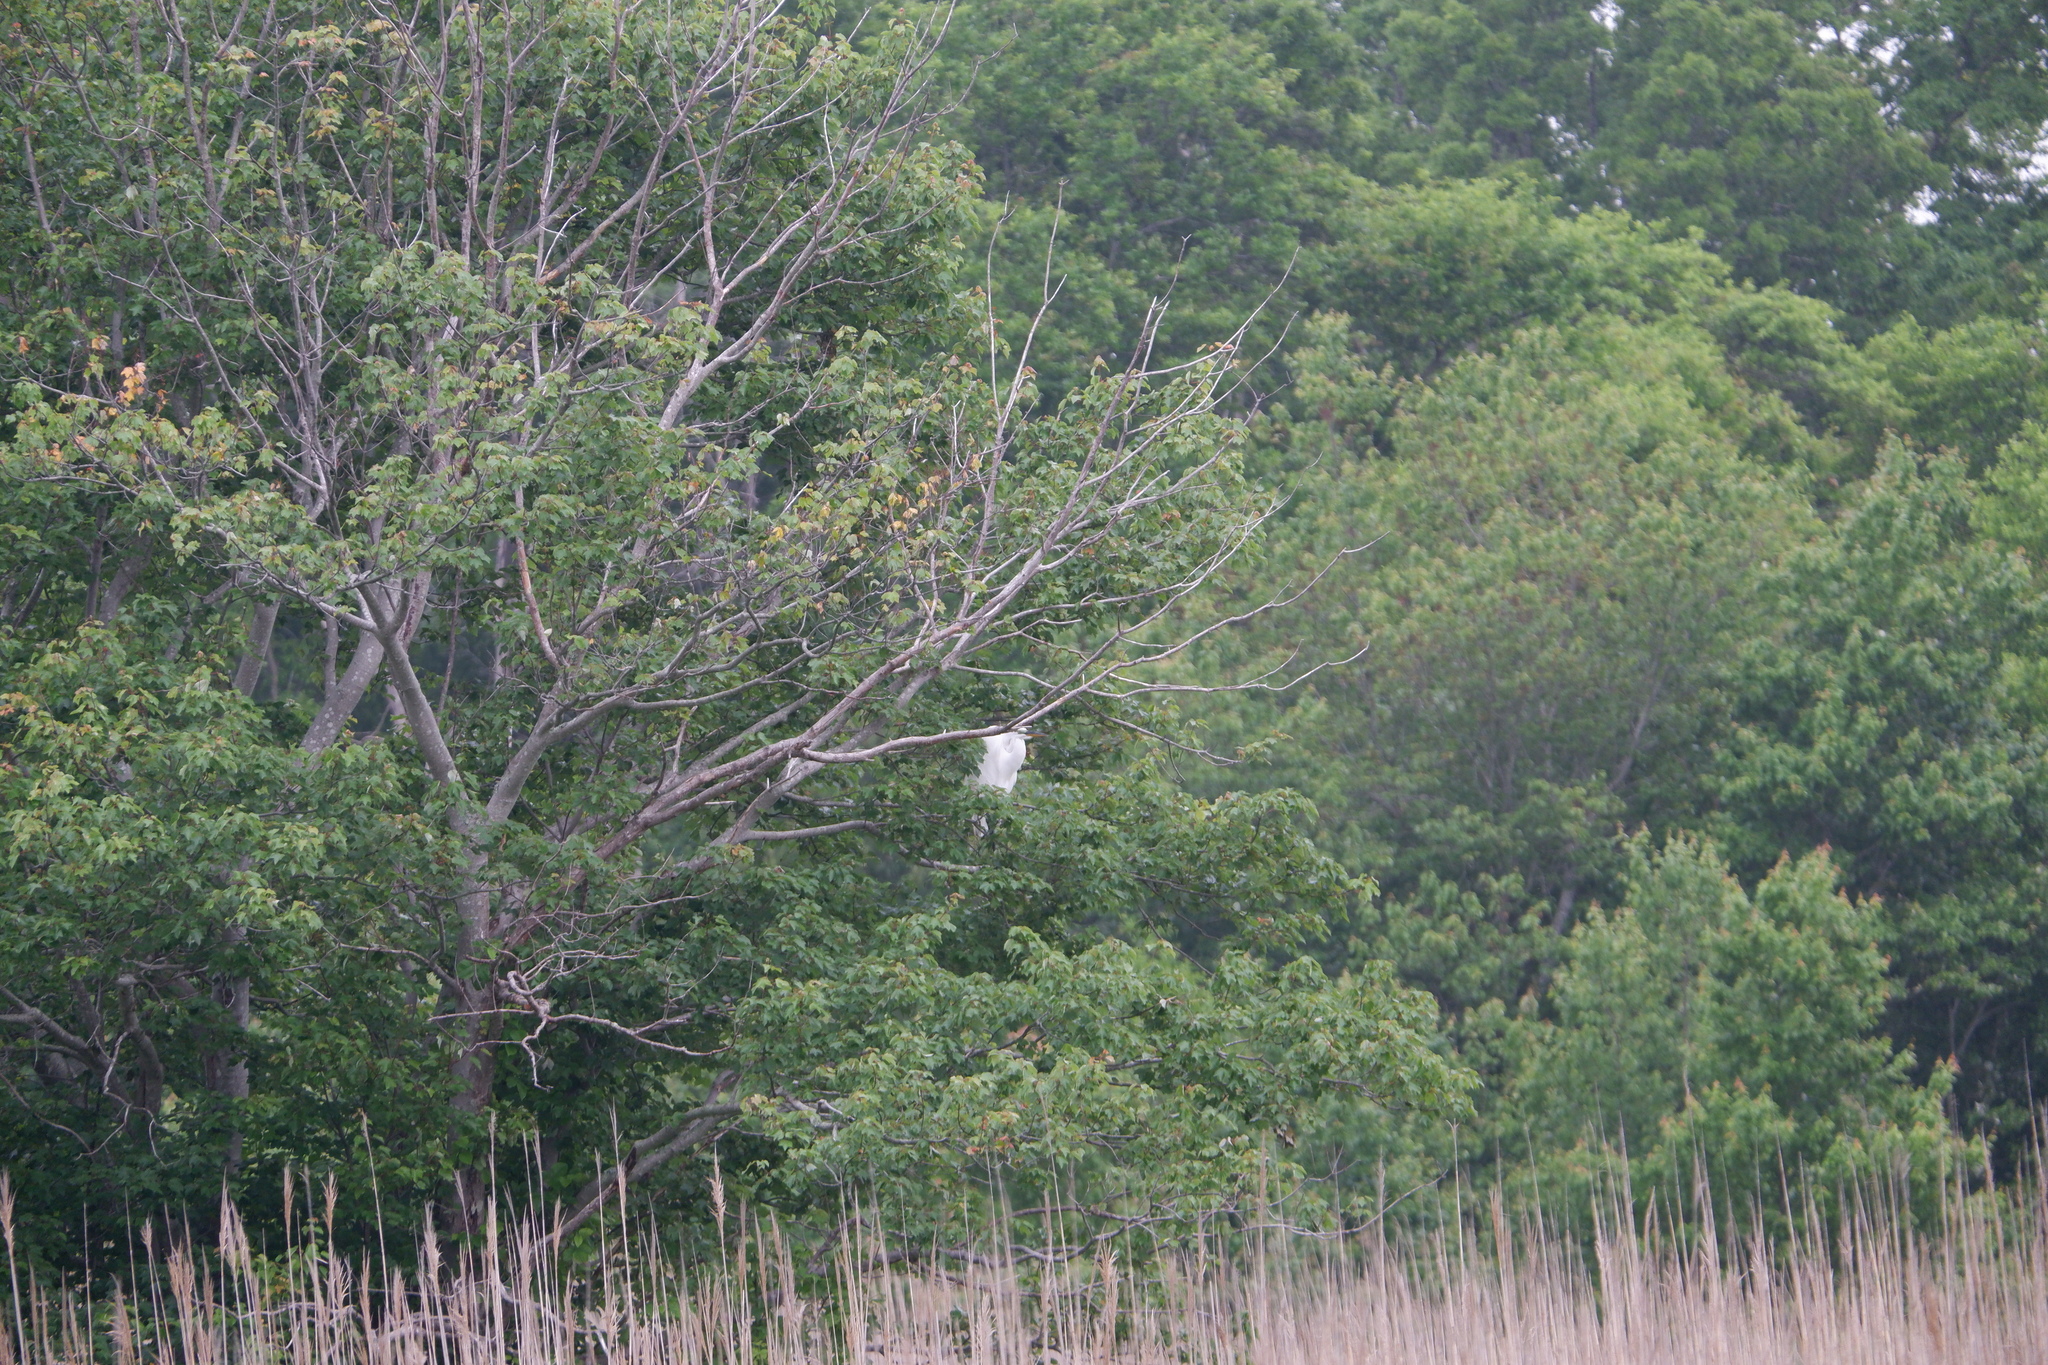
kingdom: Animalia
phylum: Chordata
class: Aves
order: Pelecaniformes
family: Ardeidae
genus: Ardea
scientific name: Ardea alba
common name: Great egret
